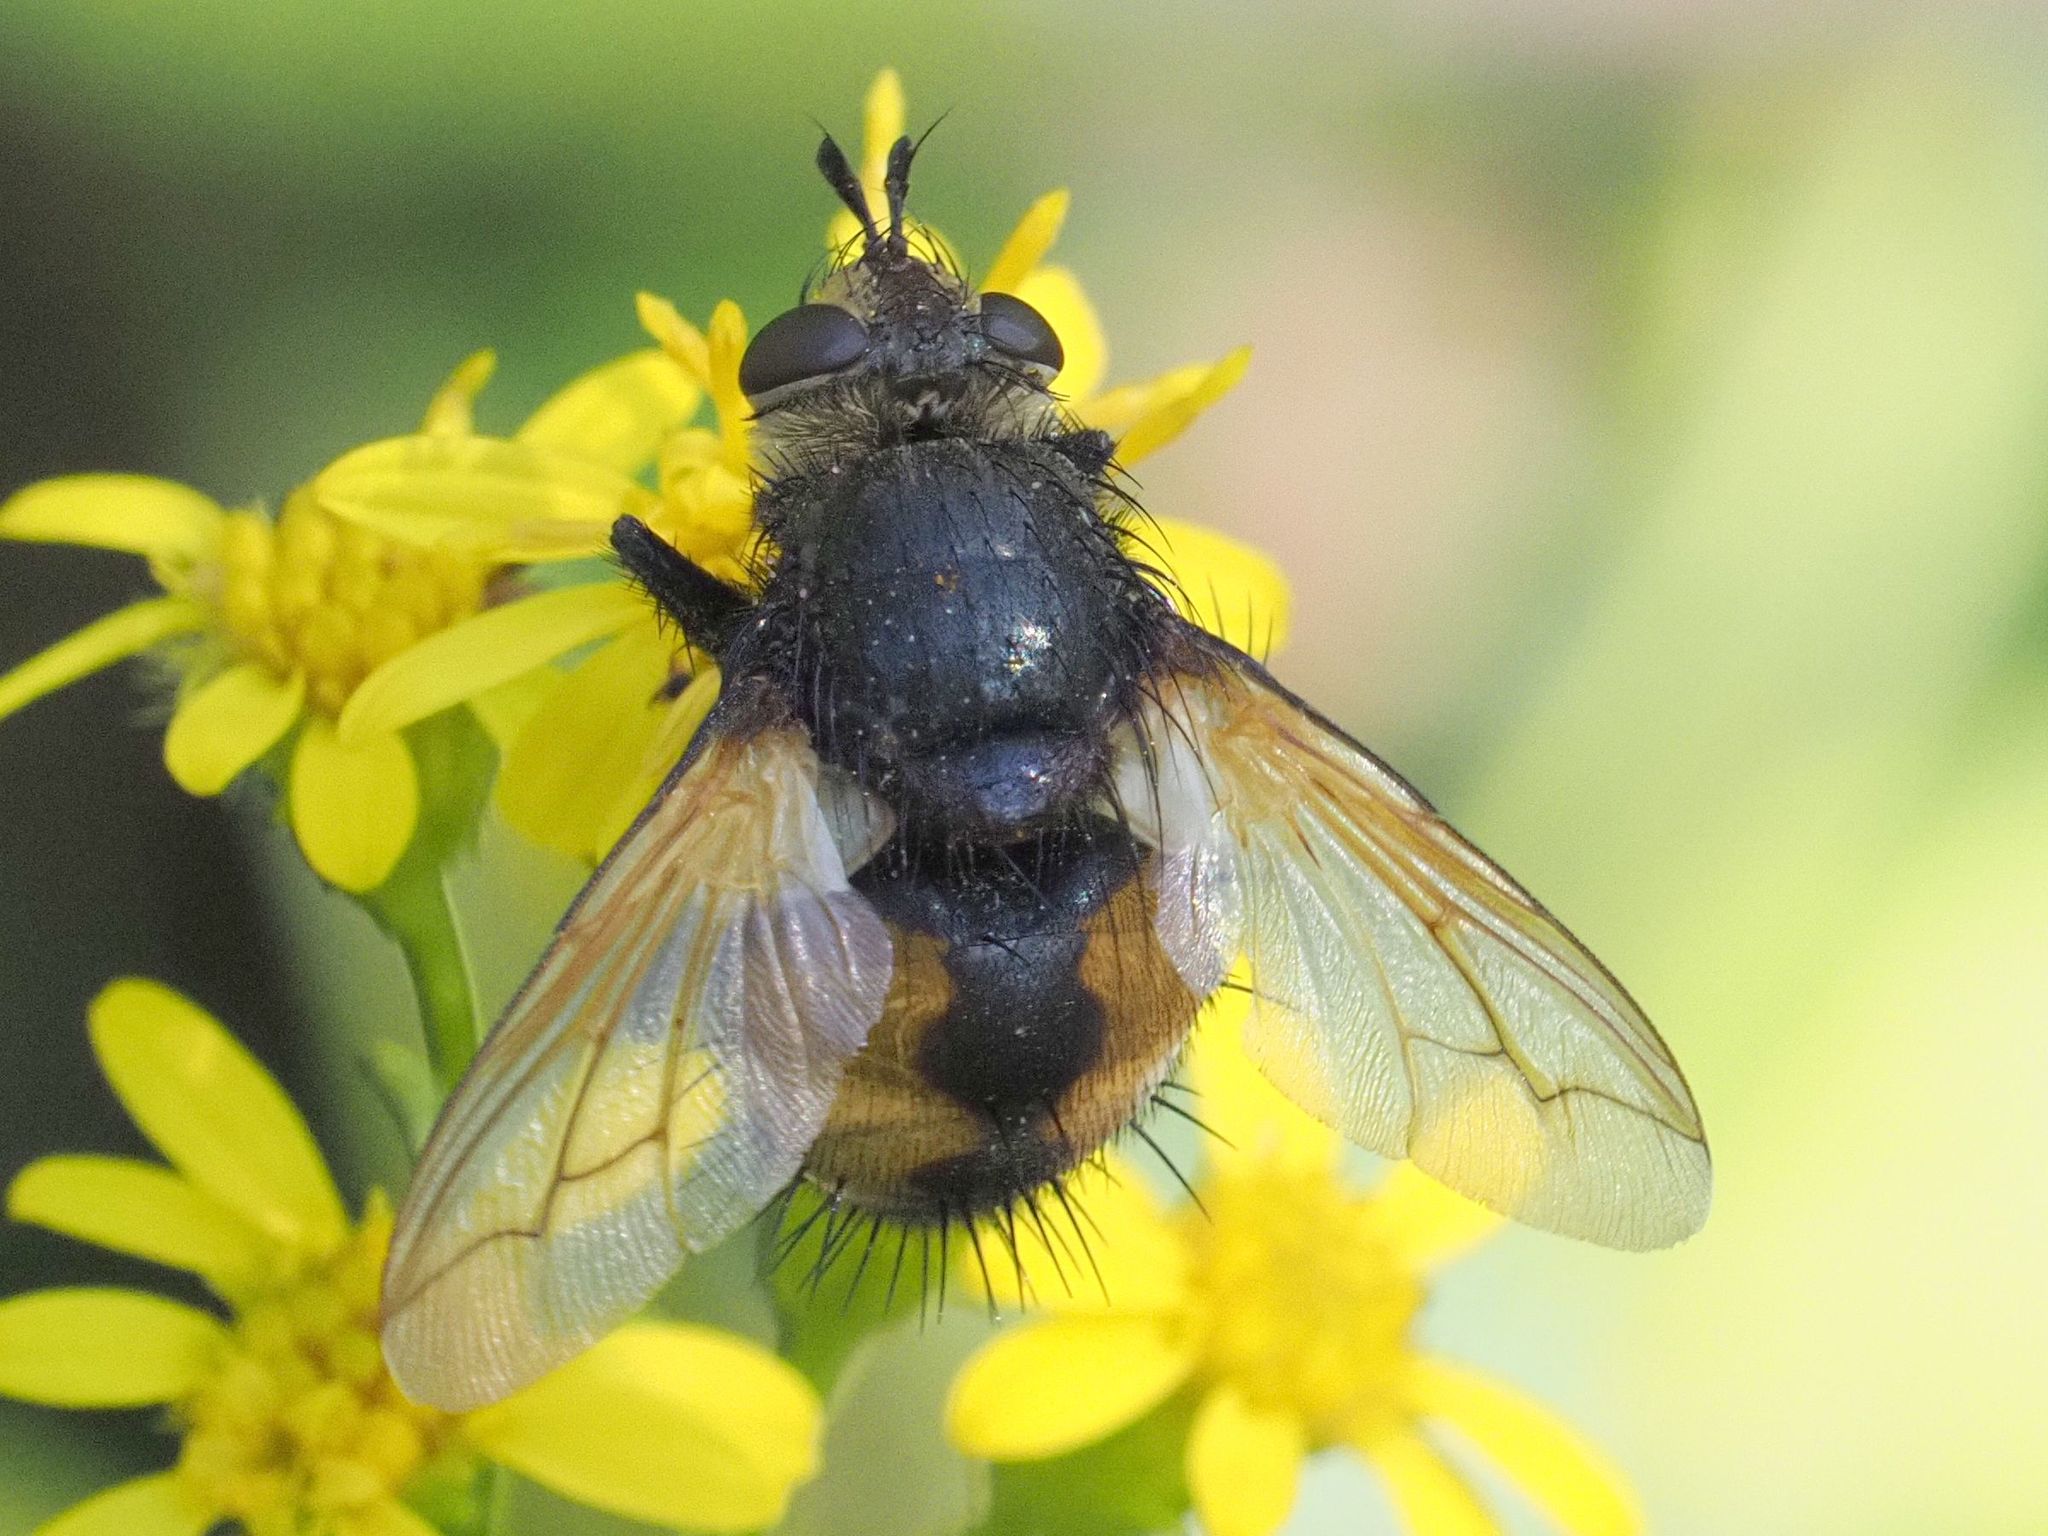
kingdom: Animalia
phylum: Arthropoda
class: Insecta
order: Diptera
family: Tachinidae
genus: Nowickia
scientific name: Nowickia ferox
